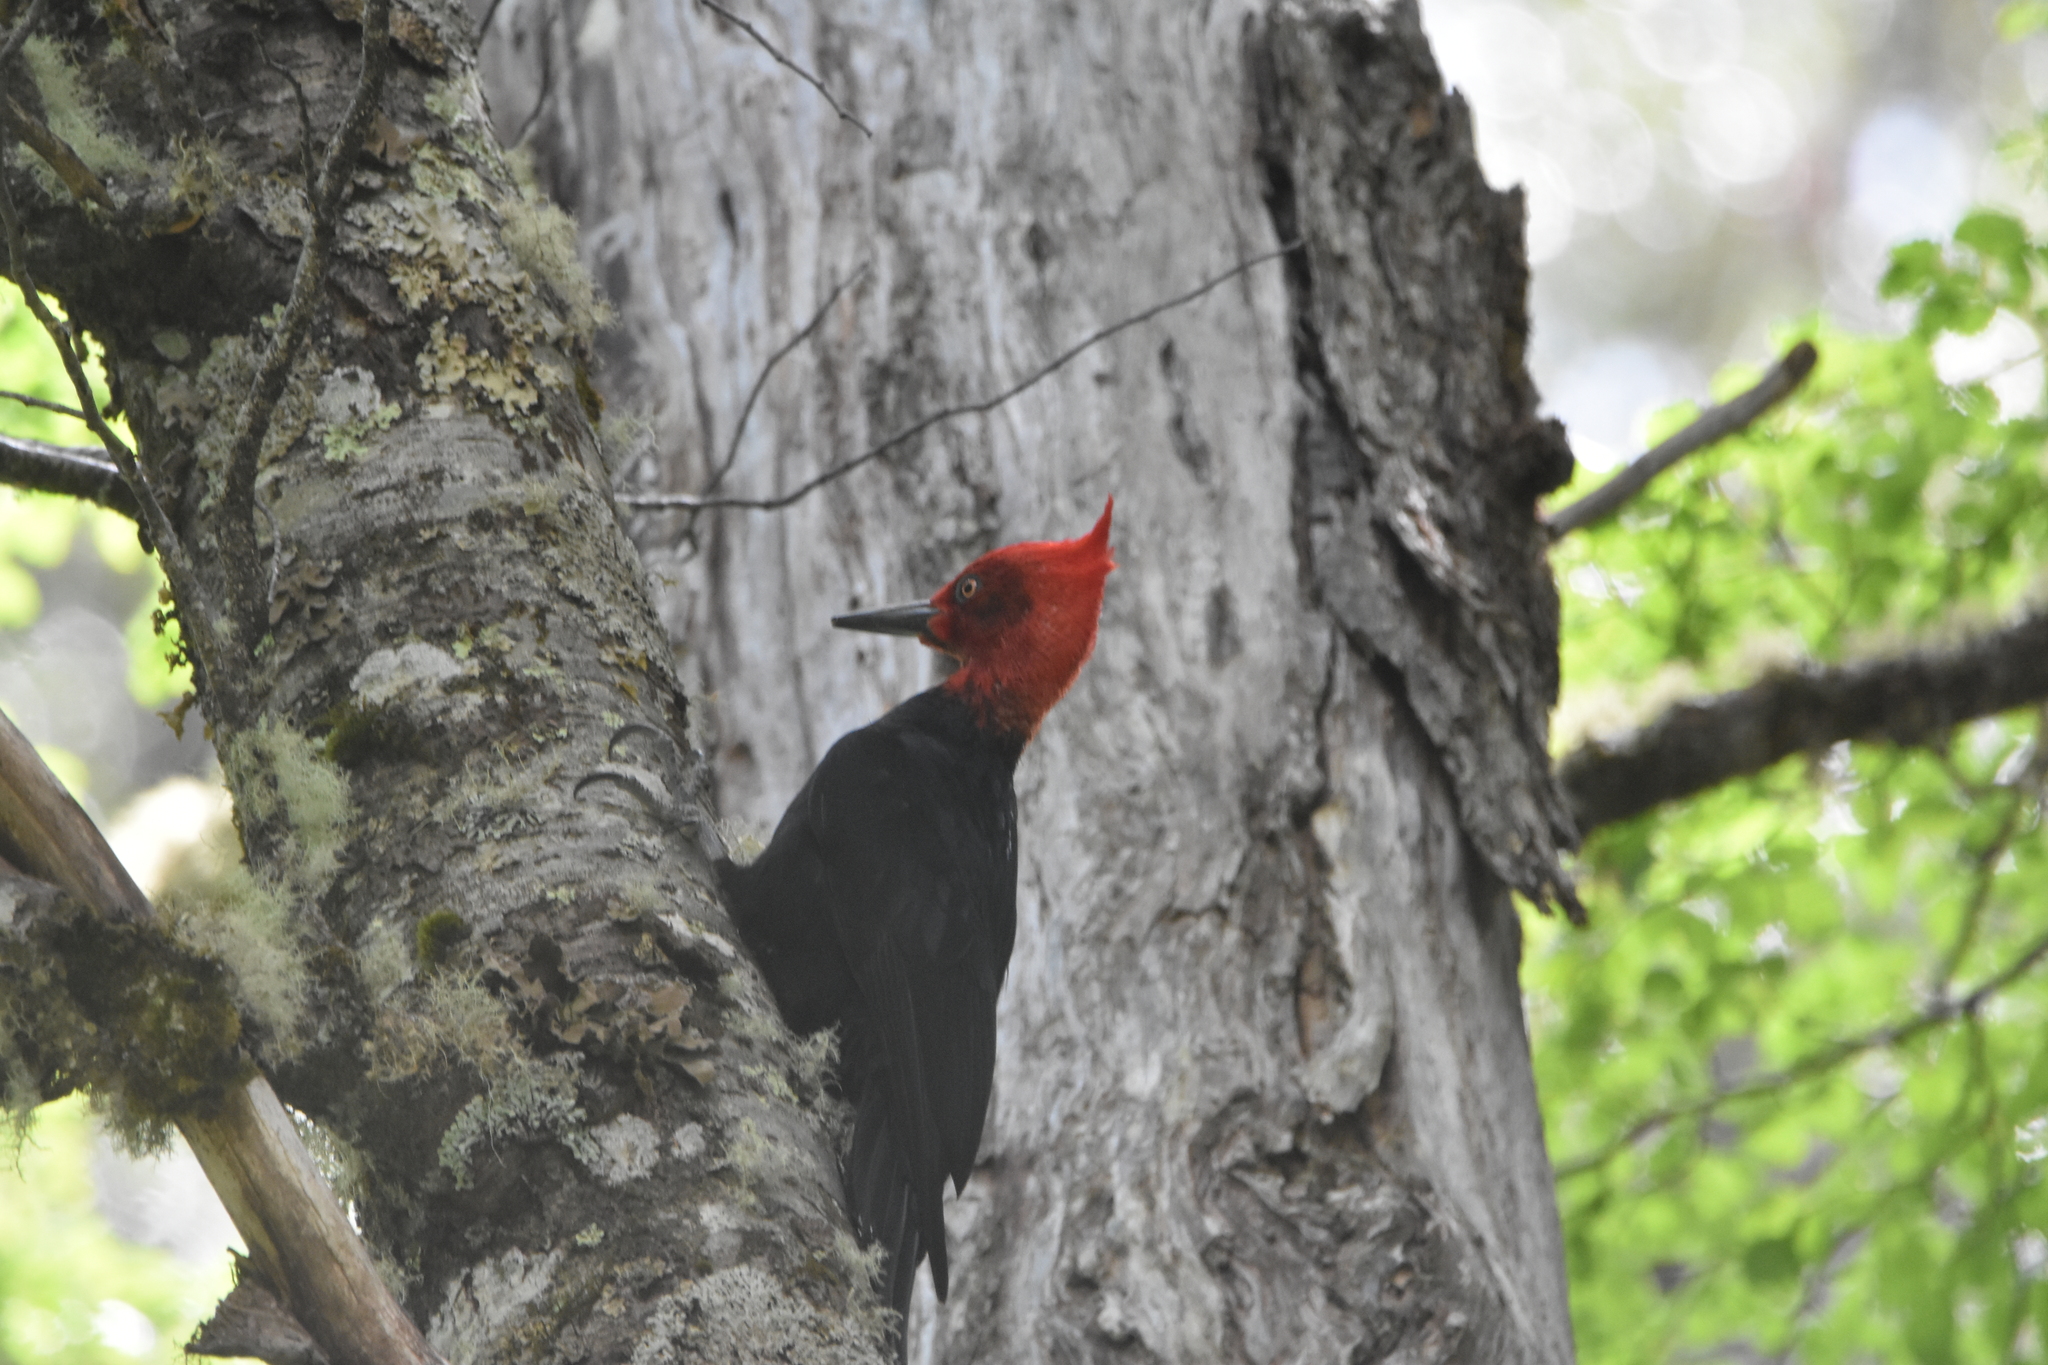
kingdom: Animalia
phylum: Chordata
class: Aves
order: Piciformes
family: Picidae
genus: Campephilus
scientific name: Campephilus magellanicus
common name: Magellanic woodpecker
